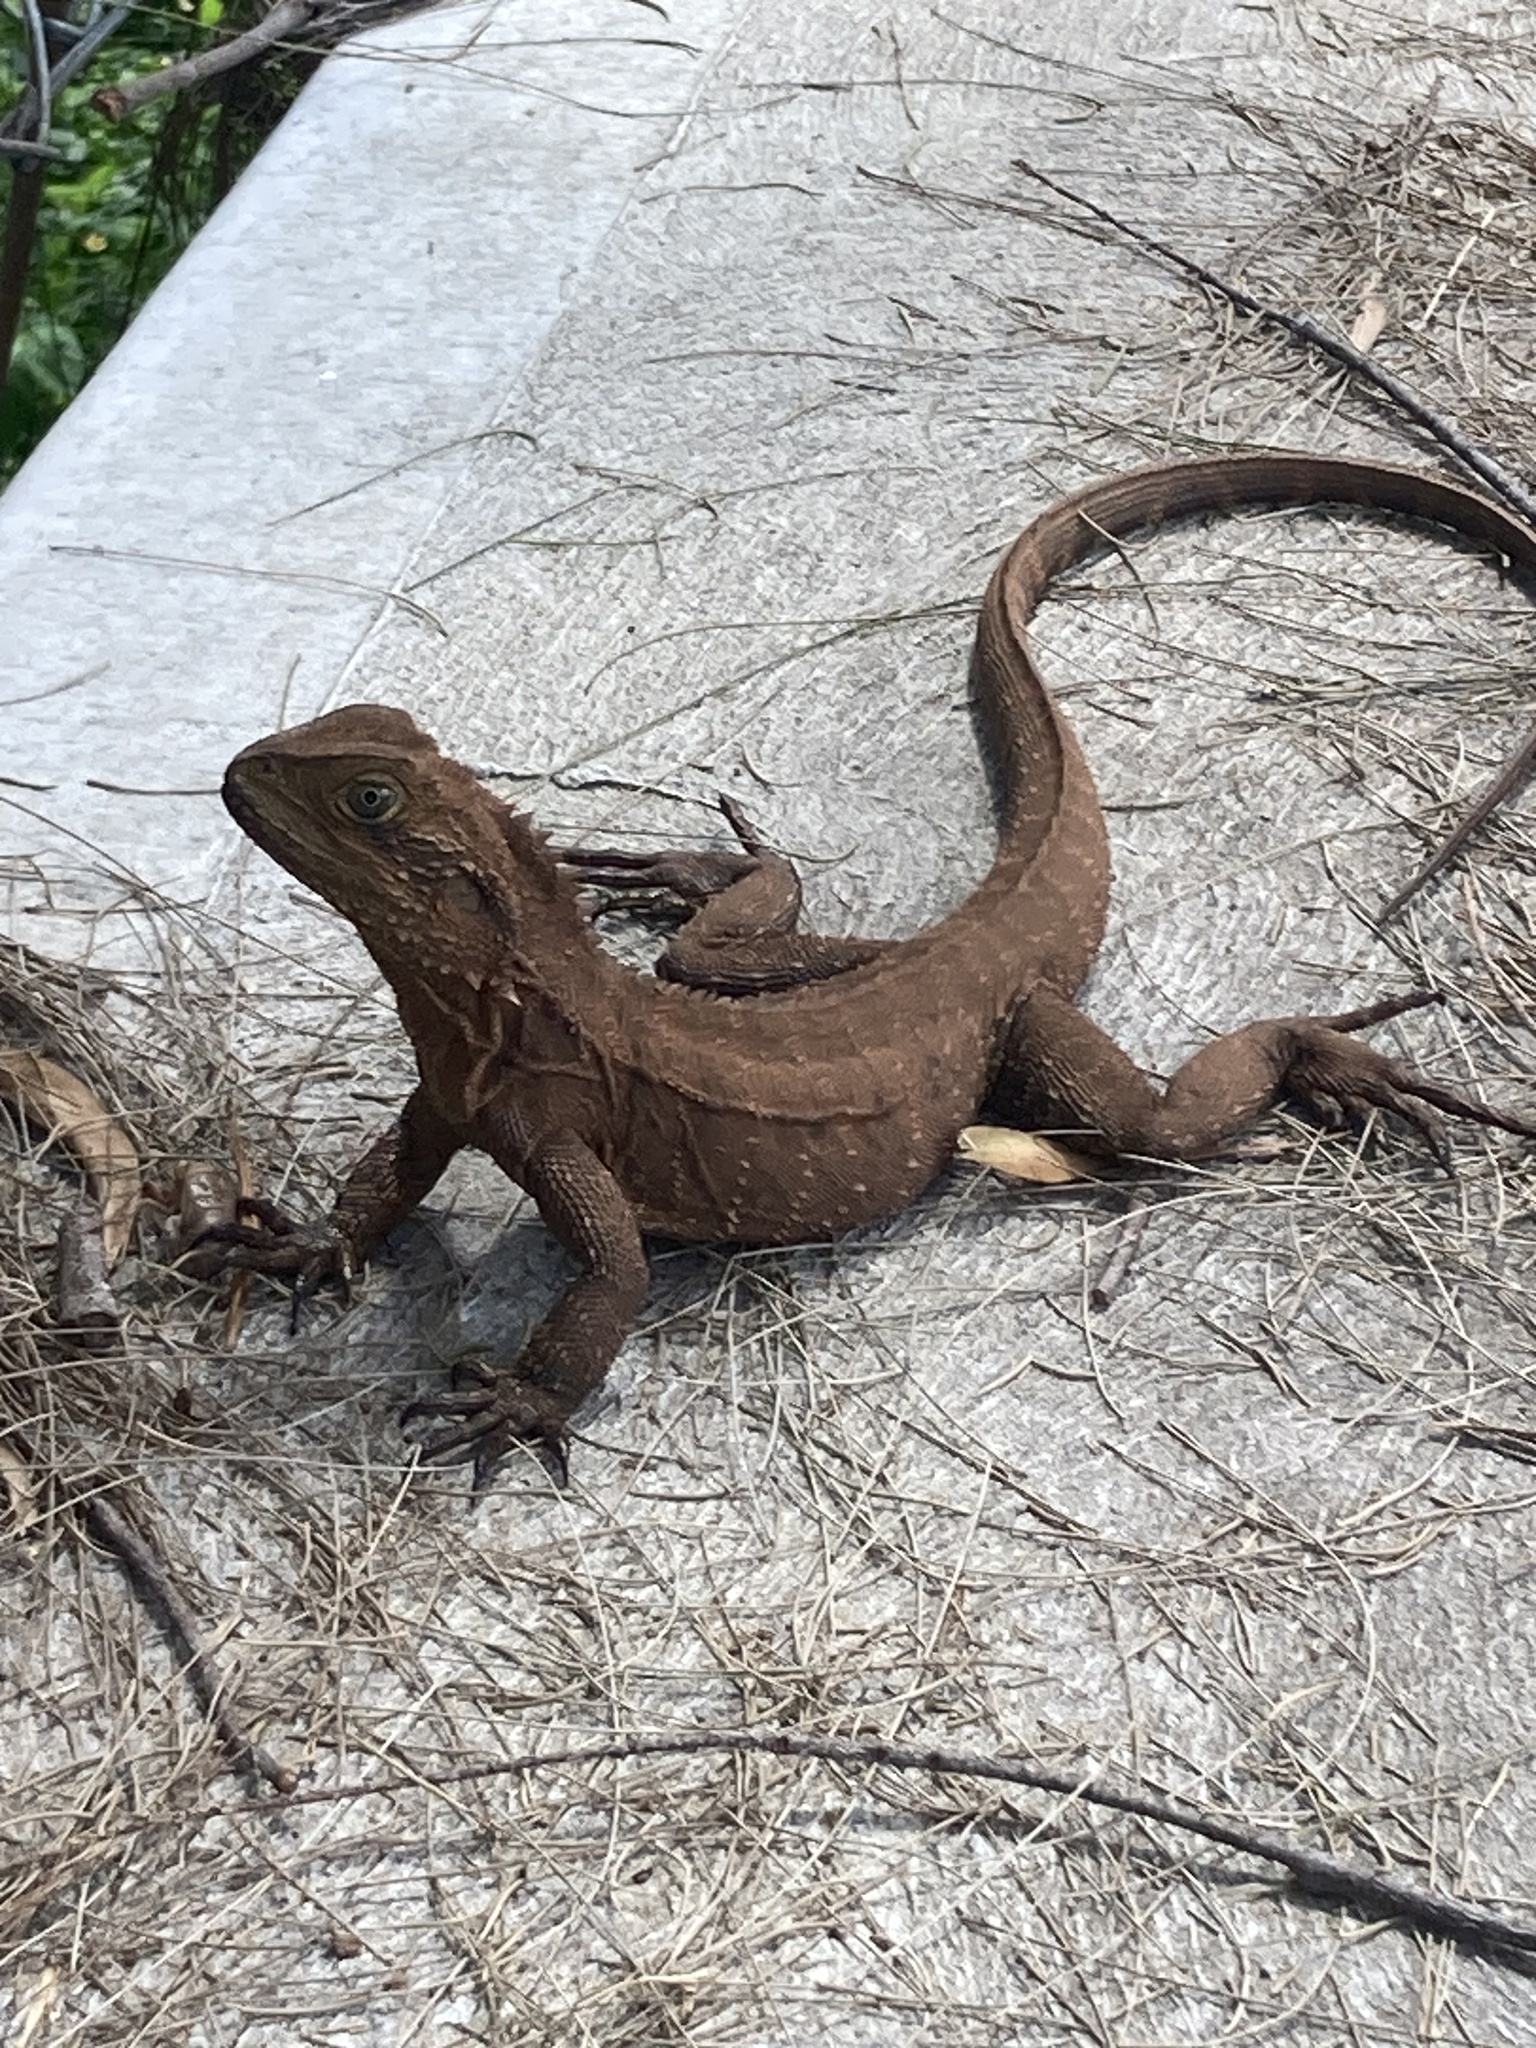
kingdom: Animalia
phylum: Chordata
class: Squamata
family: Agamidae
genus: Intellagama
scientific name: Intellagama lesueurii
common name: Eastern water dragon
